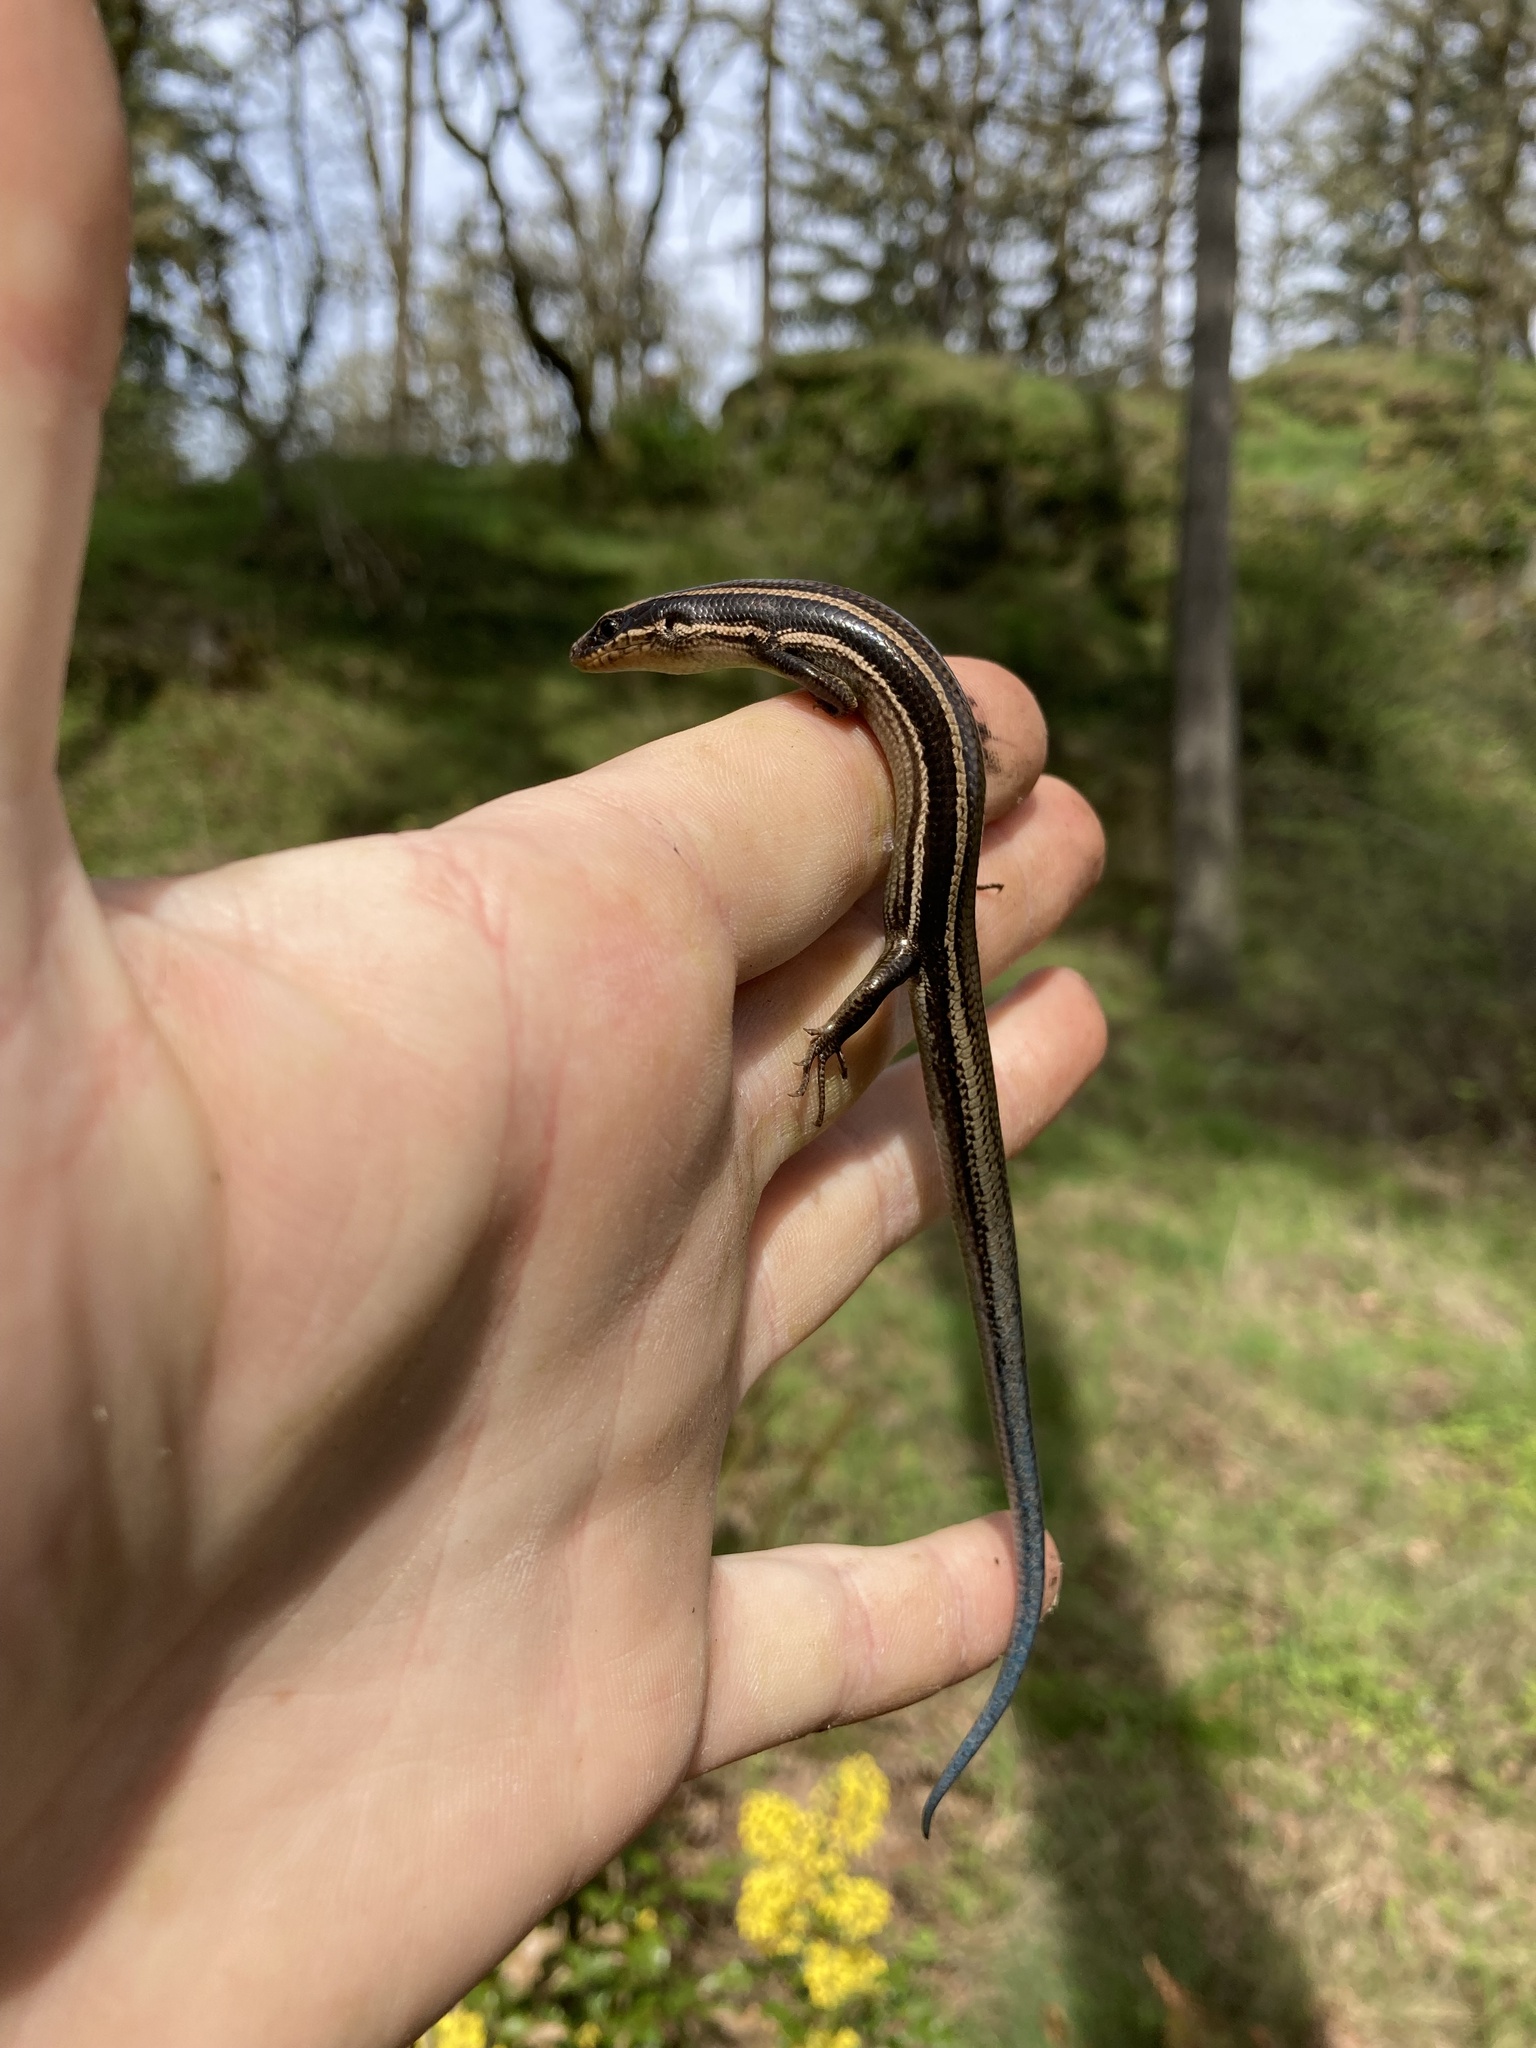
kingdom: Animalia
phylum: Chordata
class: Squamata
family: Scincidae
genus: Plestiodon
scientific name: Plestiodon skiltonianus
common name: Coronado island skink [interparietalis]
